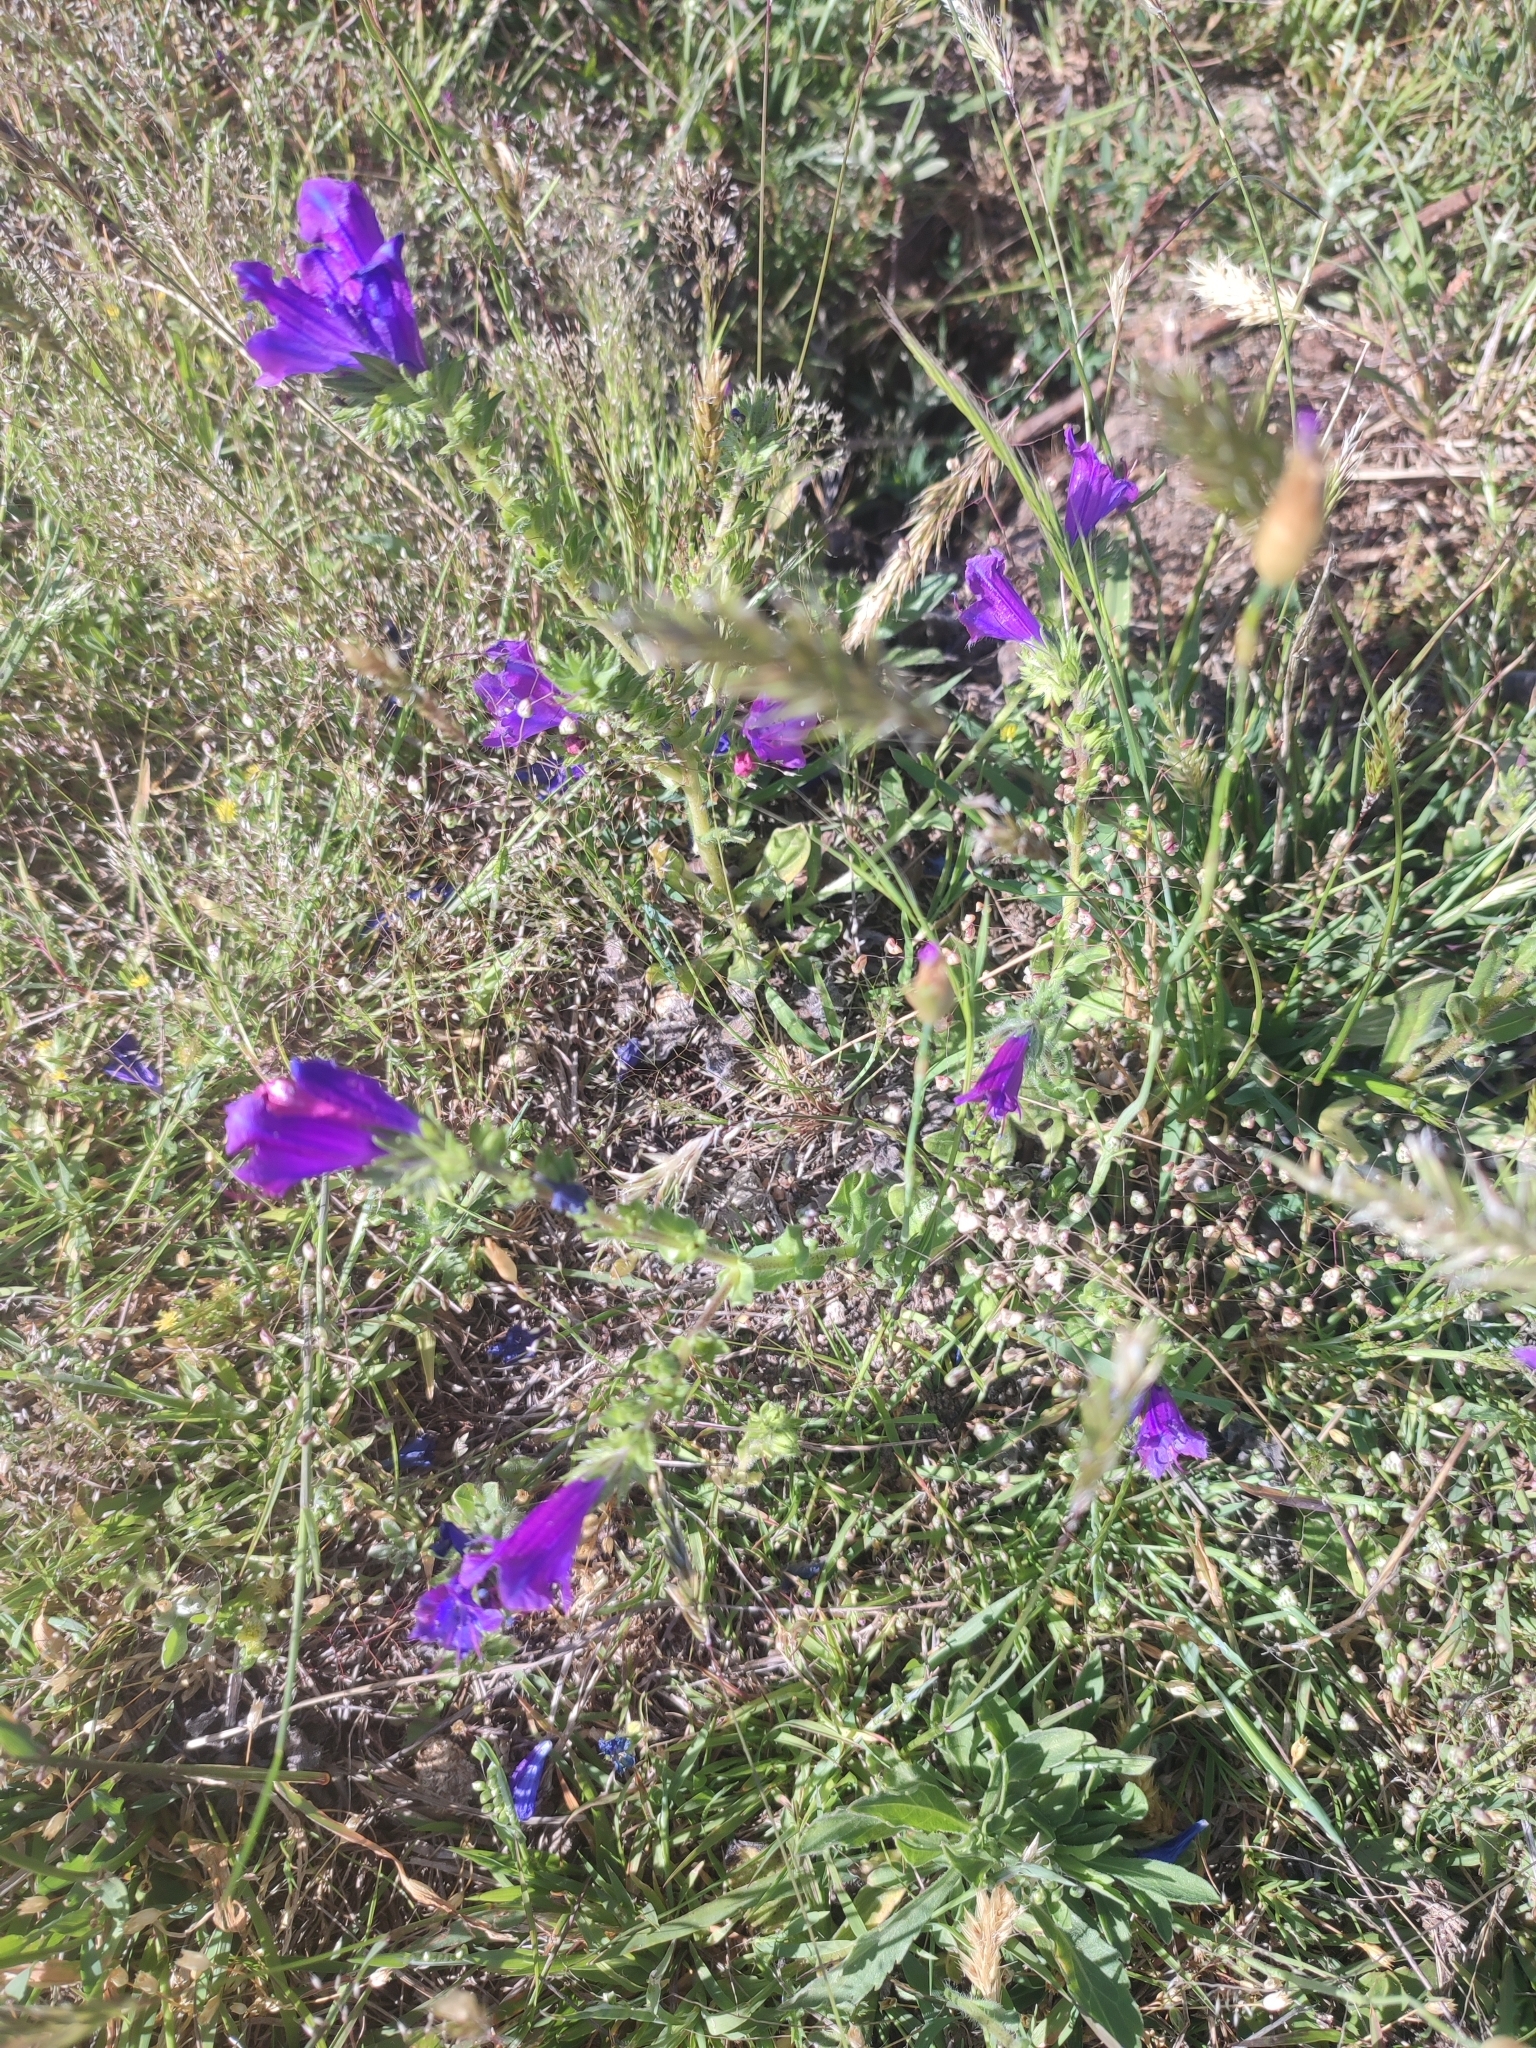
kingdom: Plantae
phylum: Tracheophyta
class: Magnoliopsida
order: Boraginales
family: Boraginaceae
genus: Echium
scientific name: Echium plantagineum
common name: Purple viper's-bugloss
